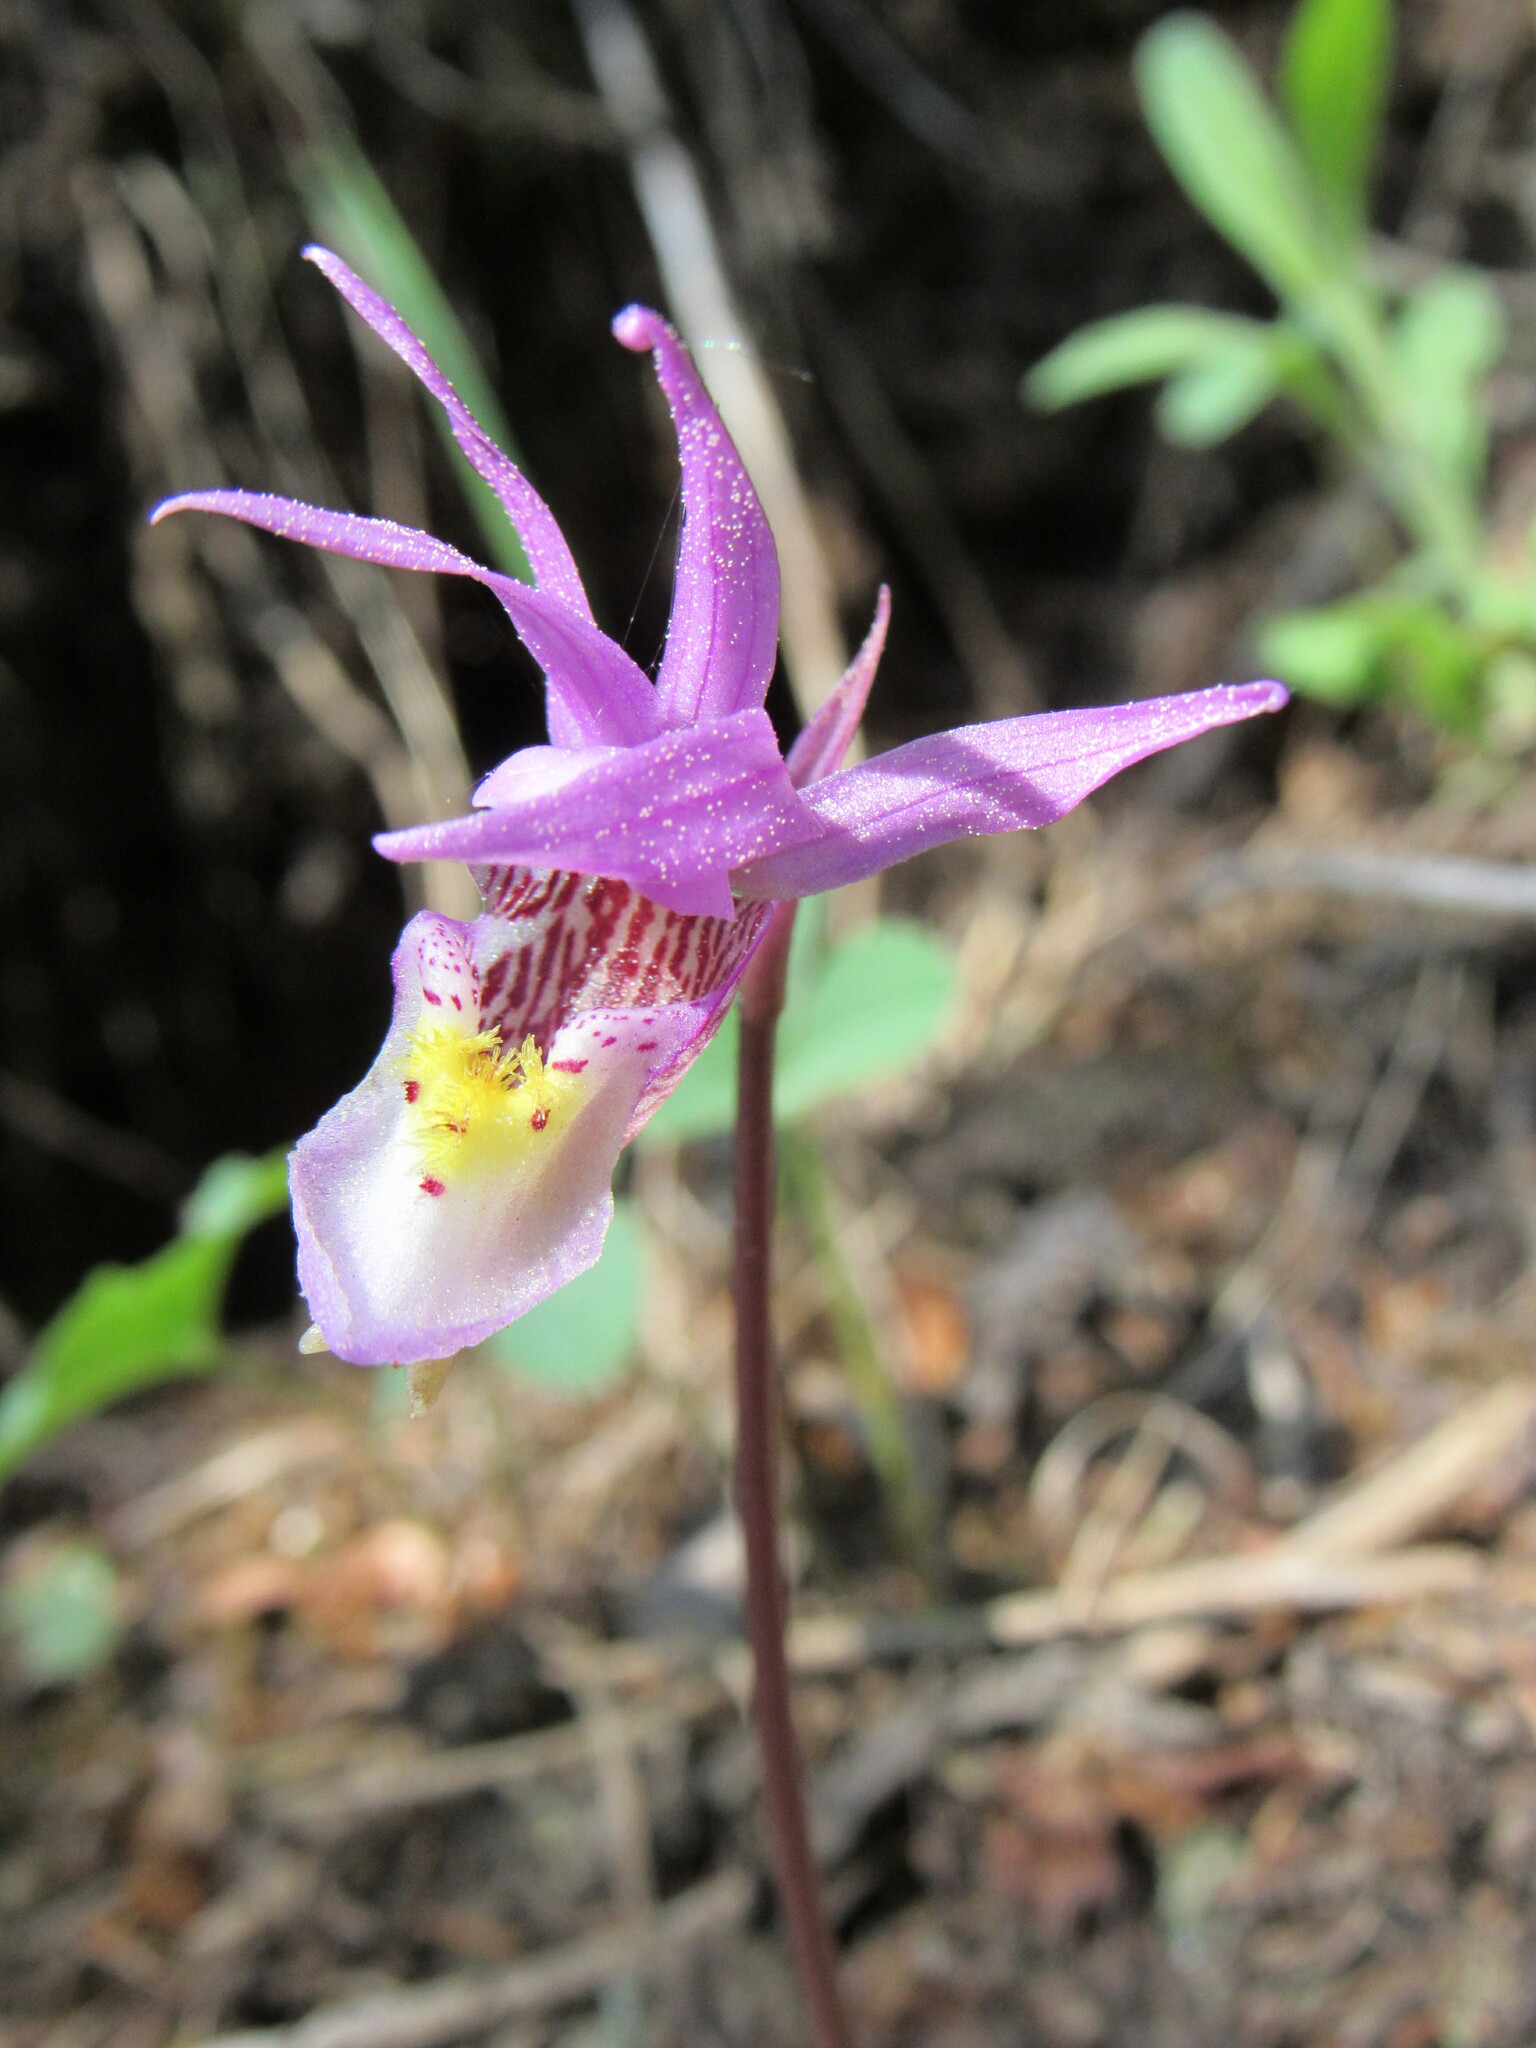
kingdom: Plantae
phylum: Tracheophyta
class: Liliopsida
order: Asparagales
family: Orchidaceae
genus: Calypso
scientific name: Calypso bulbosa
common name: Calypso
